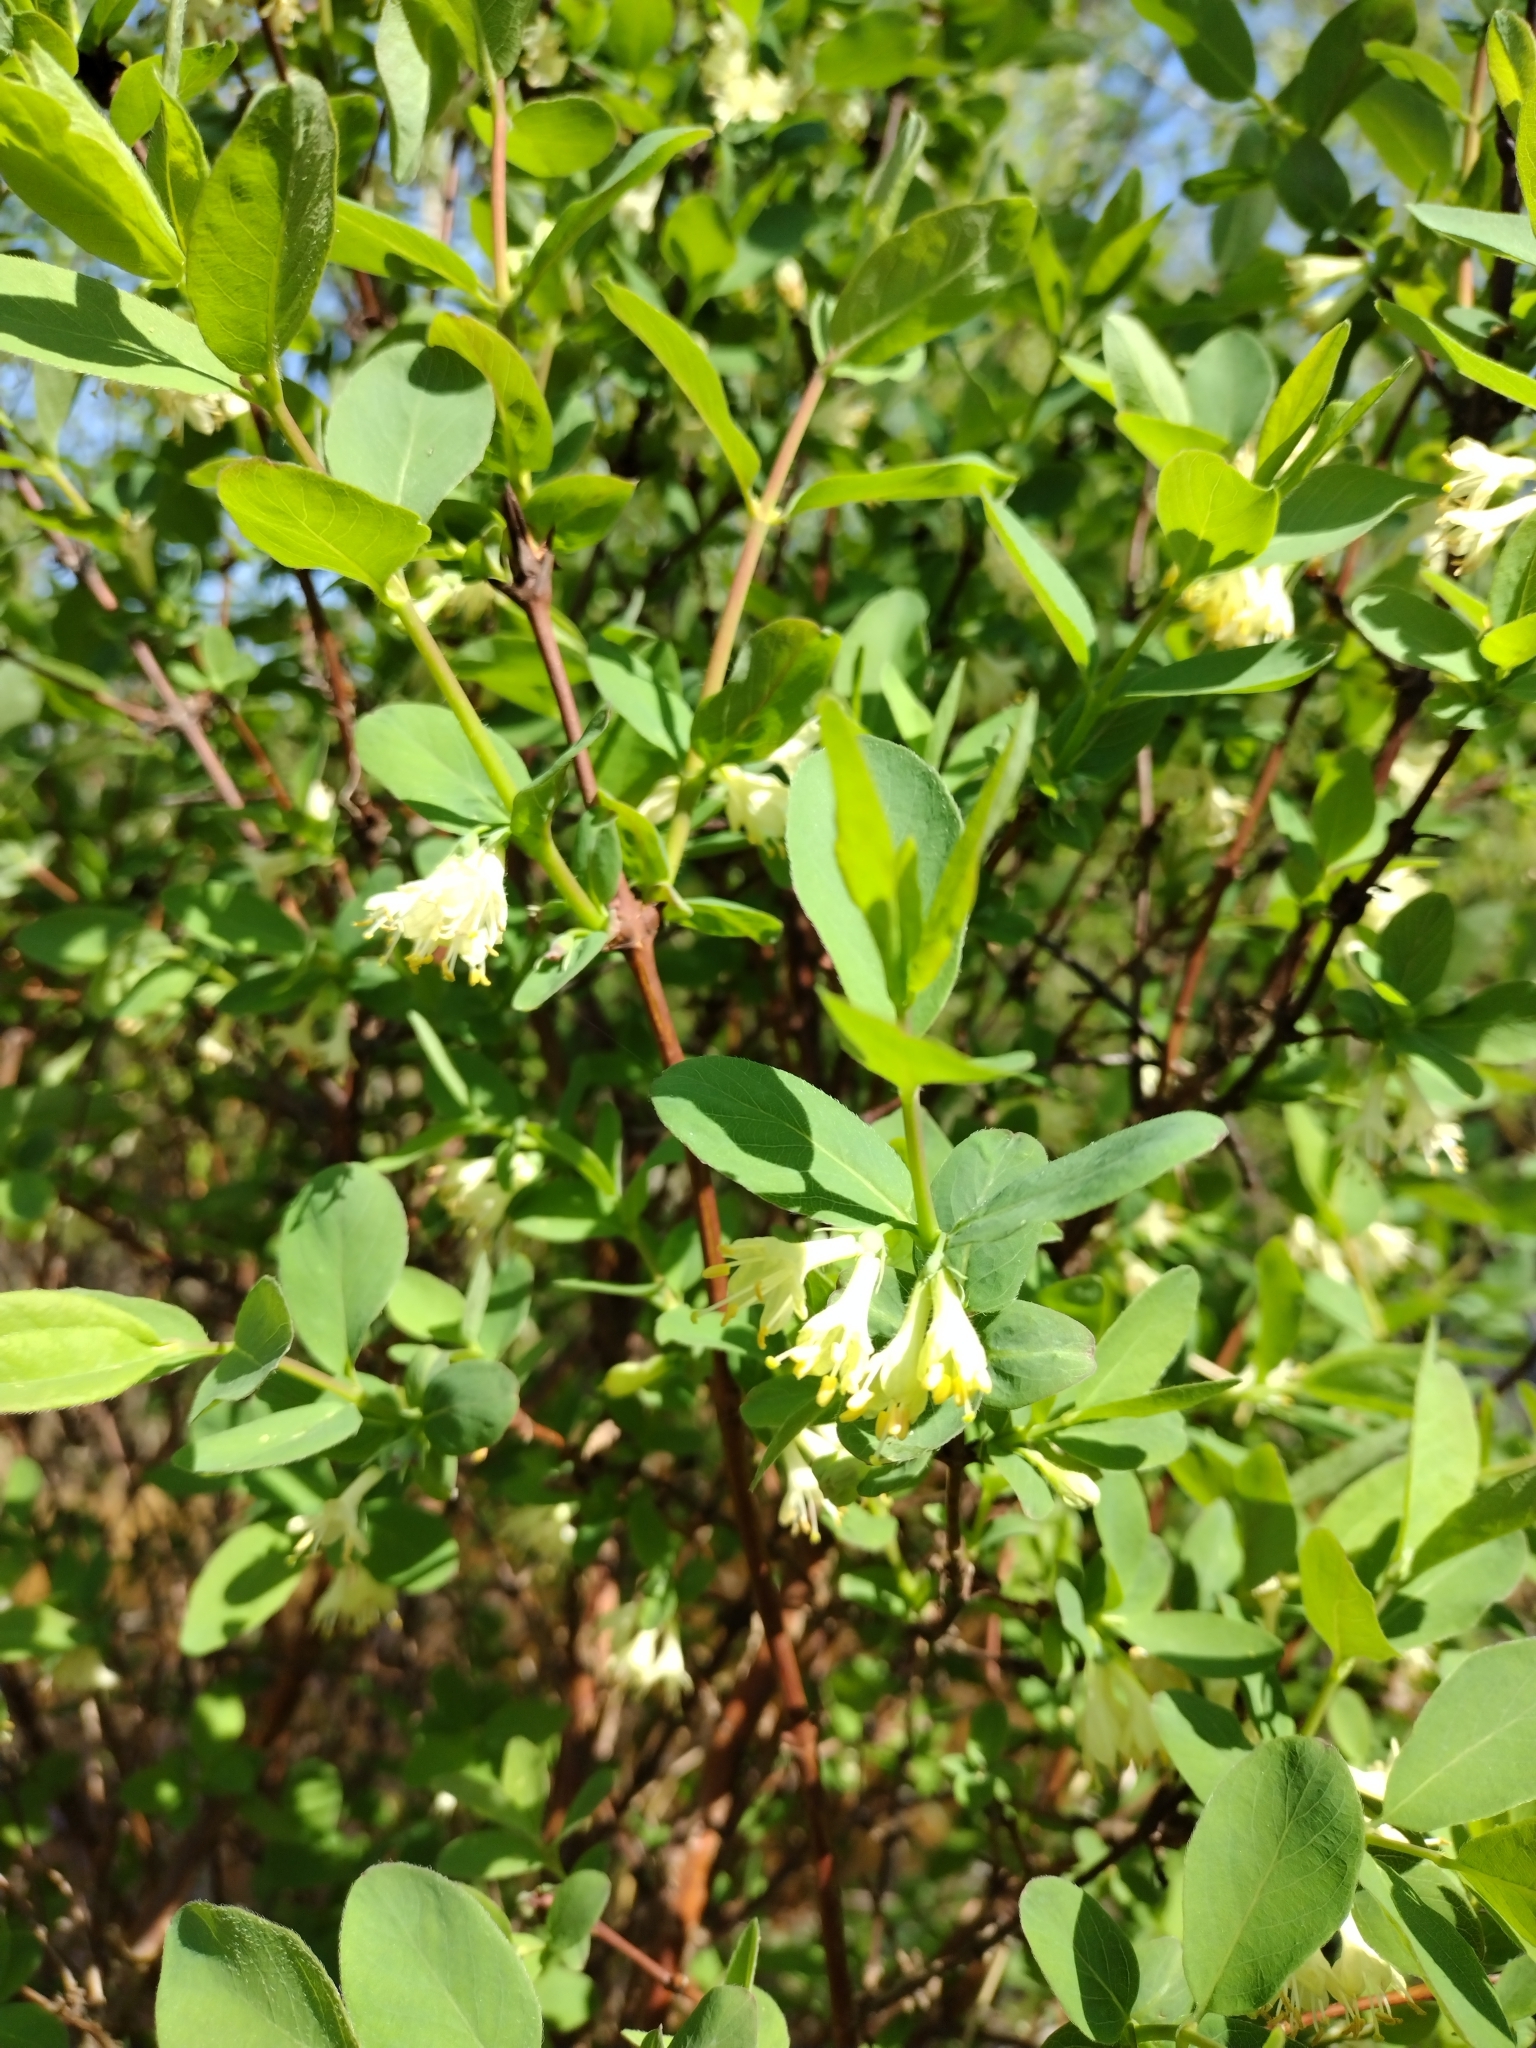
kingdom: Plantae
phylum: Tracheophyta
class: Magnoliopsida
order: Dipsacales
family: Caprifoliaceae
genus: Lonicera
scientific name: Lonicera caerulea
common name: Blue honeysuckle
